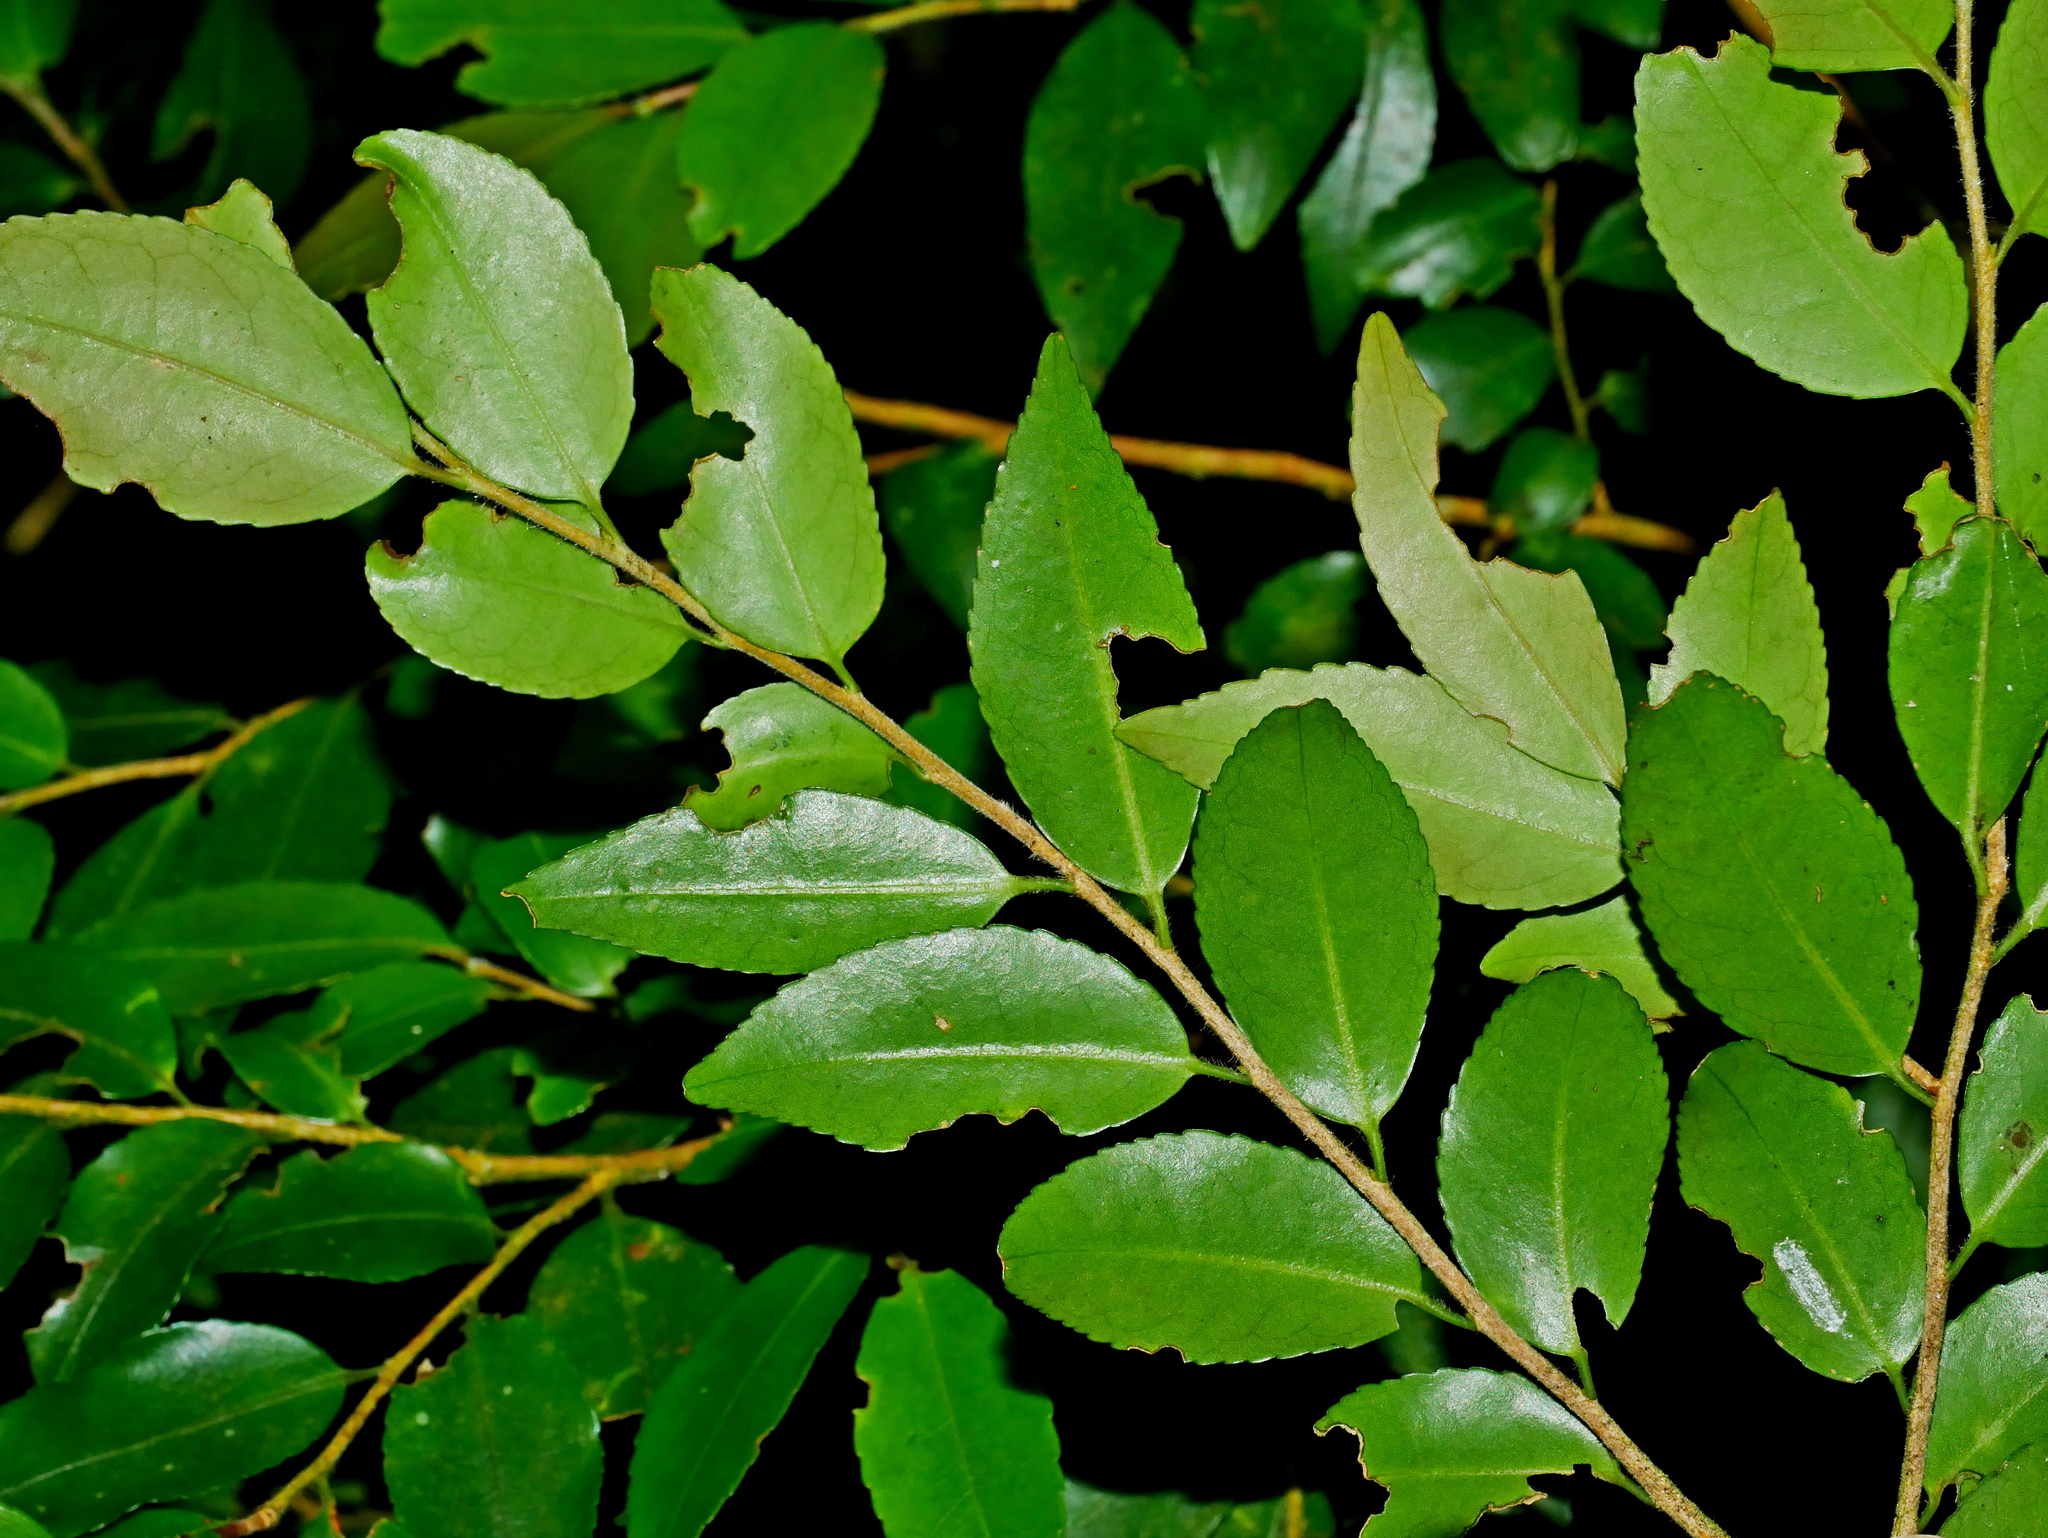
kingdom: Plantae
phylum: Tracheophyta
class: Magnoliopsida
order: Ericales
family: Theaceae
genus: Camellia
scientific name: Camellia lutchuensis
